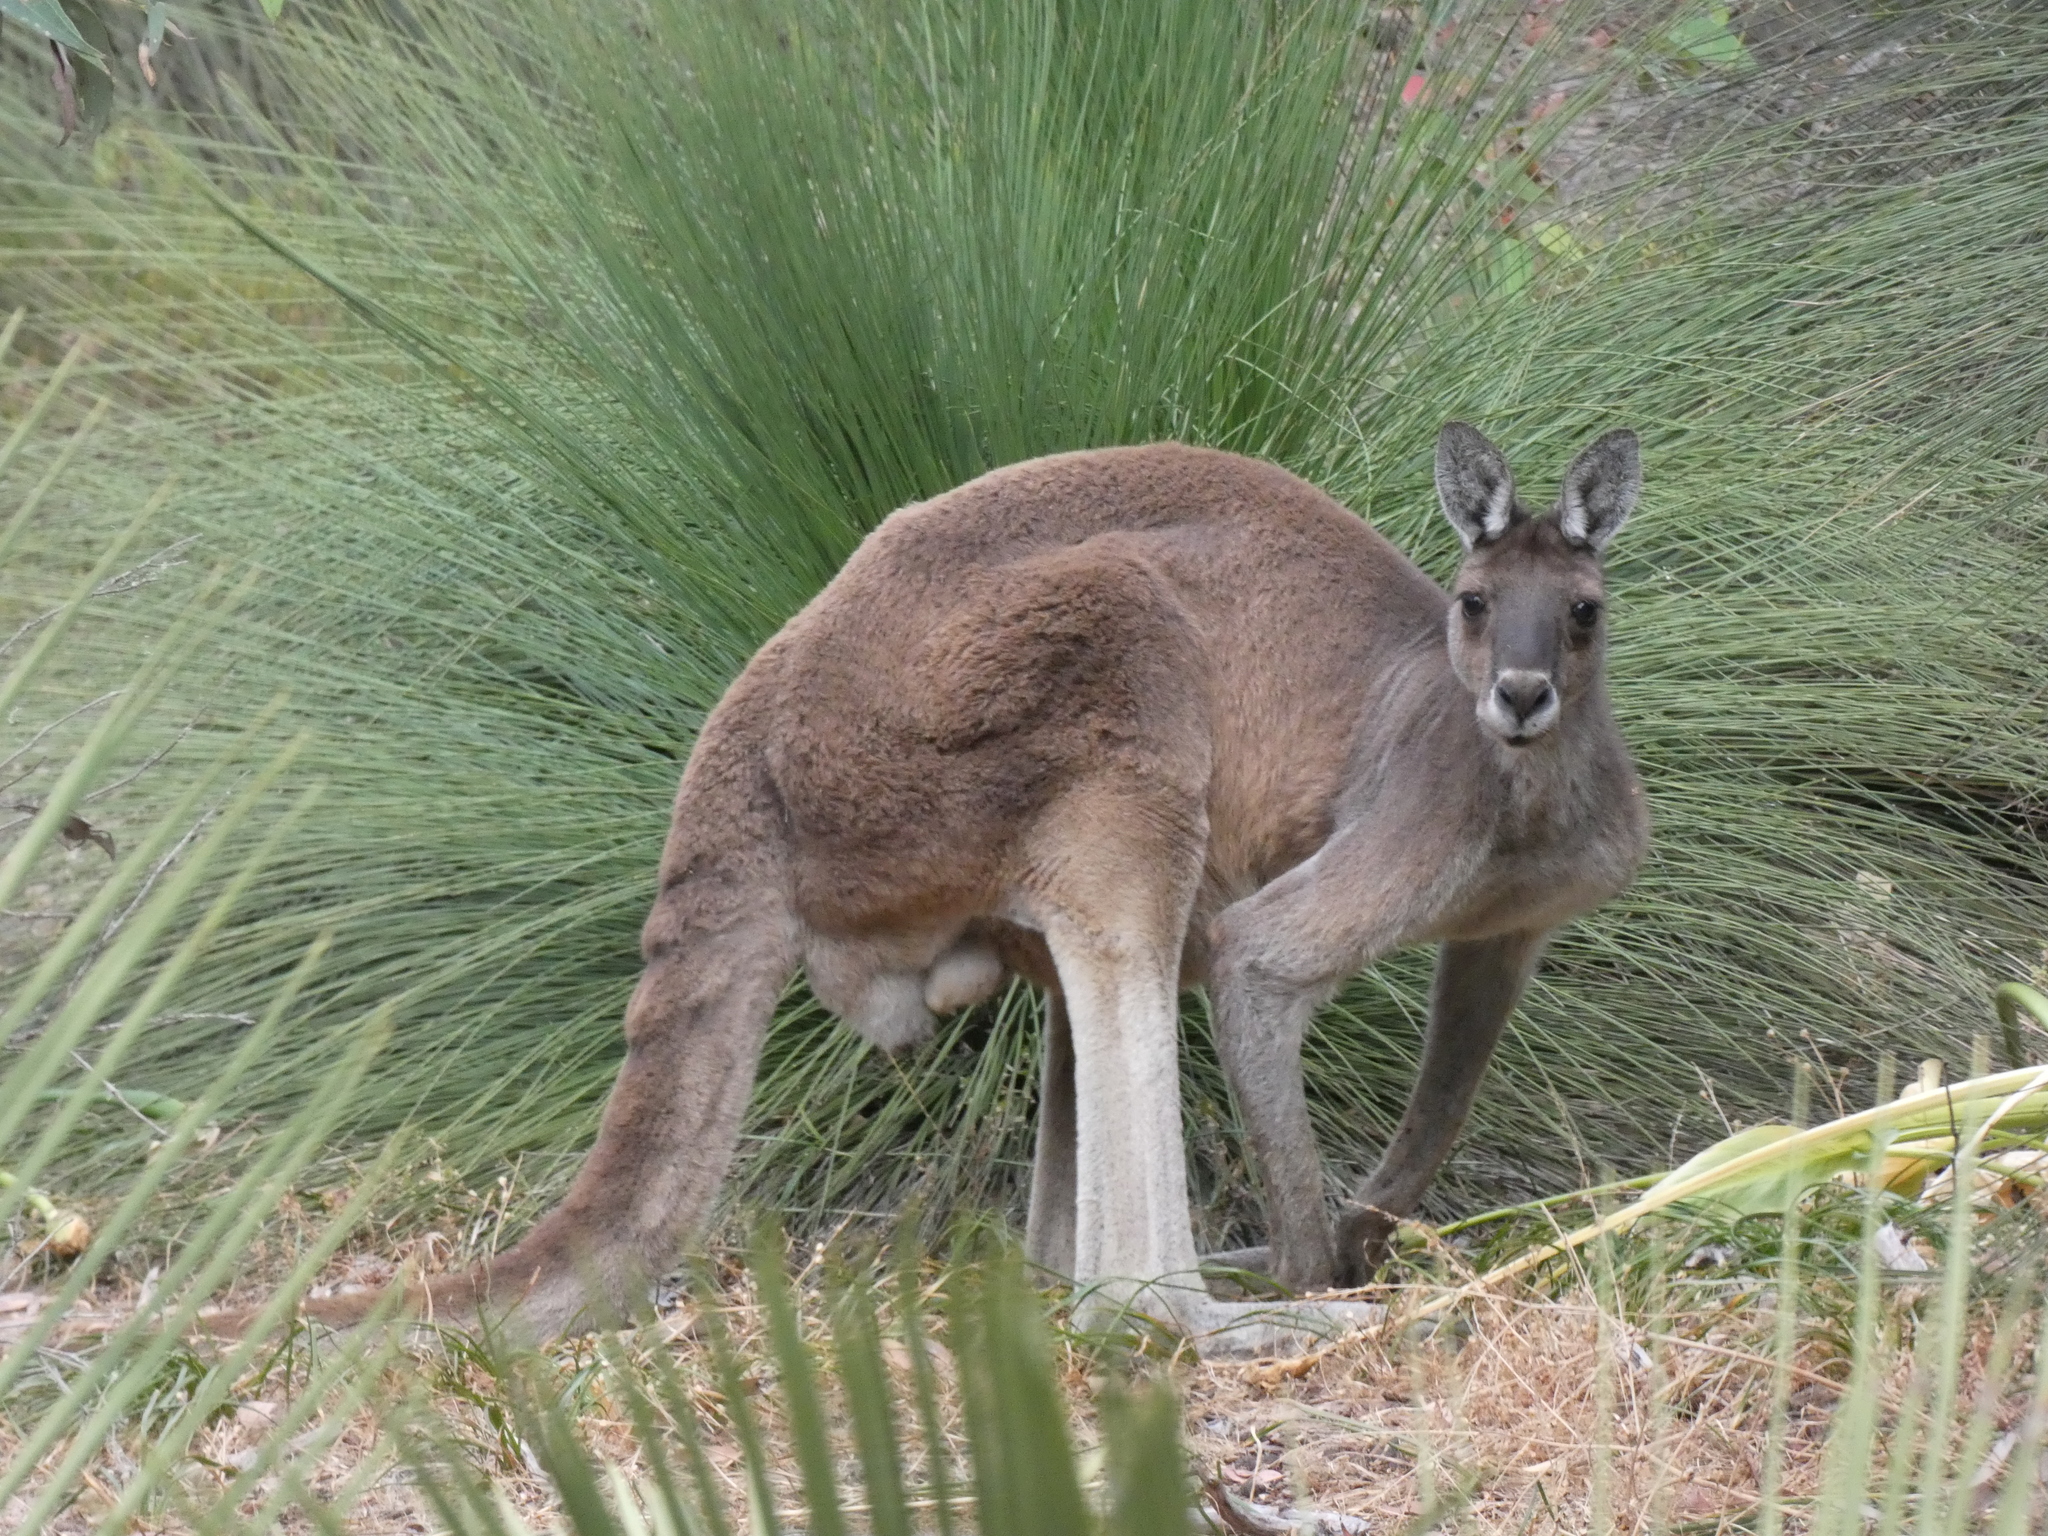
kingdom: Animalia
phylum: Chordata
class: Mammalia
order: Diprotodontia
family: Macropodidae
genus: Macropus
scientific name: Macropus fuliginosus
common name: Western grey kangaroo
